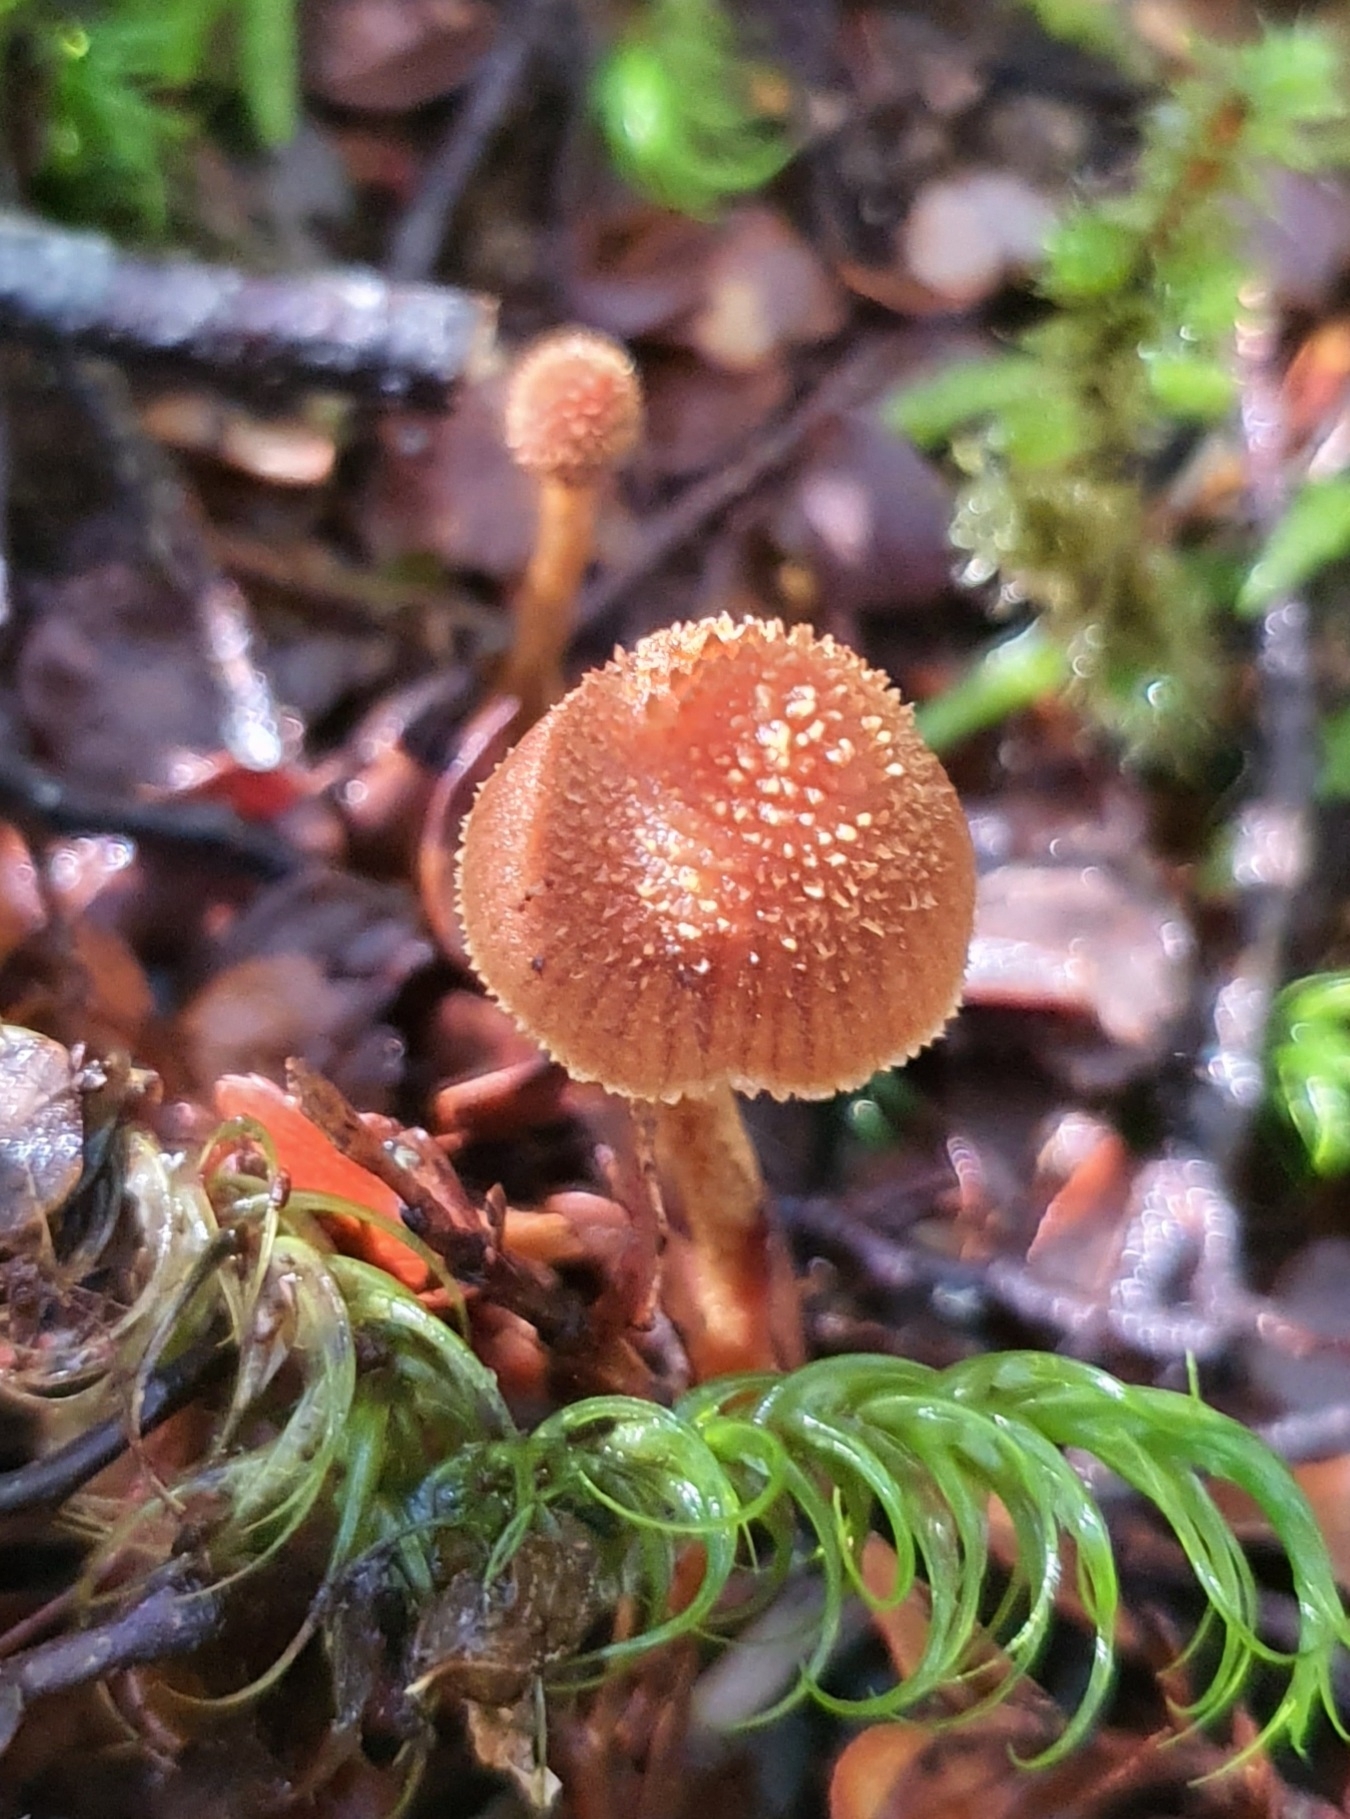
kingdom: Fungi
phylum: Basidiomycota
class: Agaricomycetes
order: Agaricales
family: Cortinariaceae
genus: Cortinarius
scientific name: Cortinarius lanceolatus
